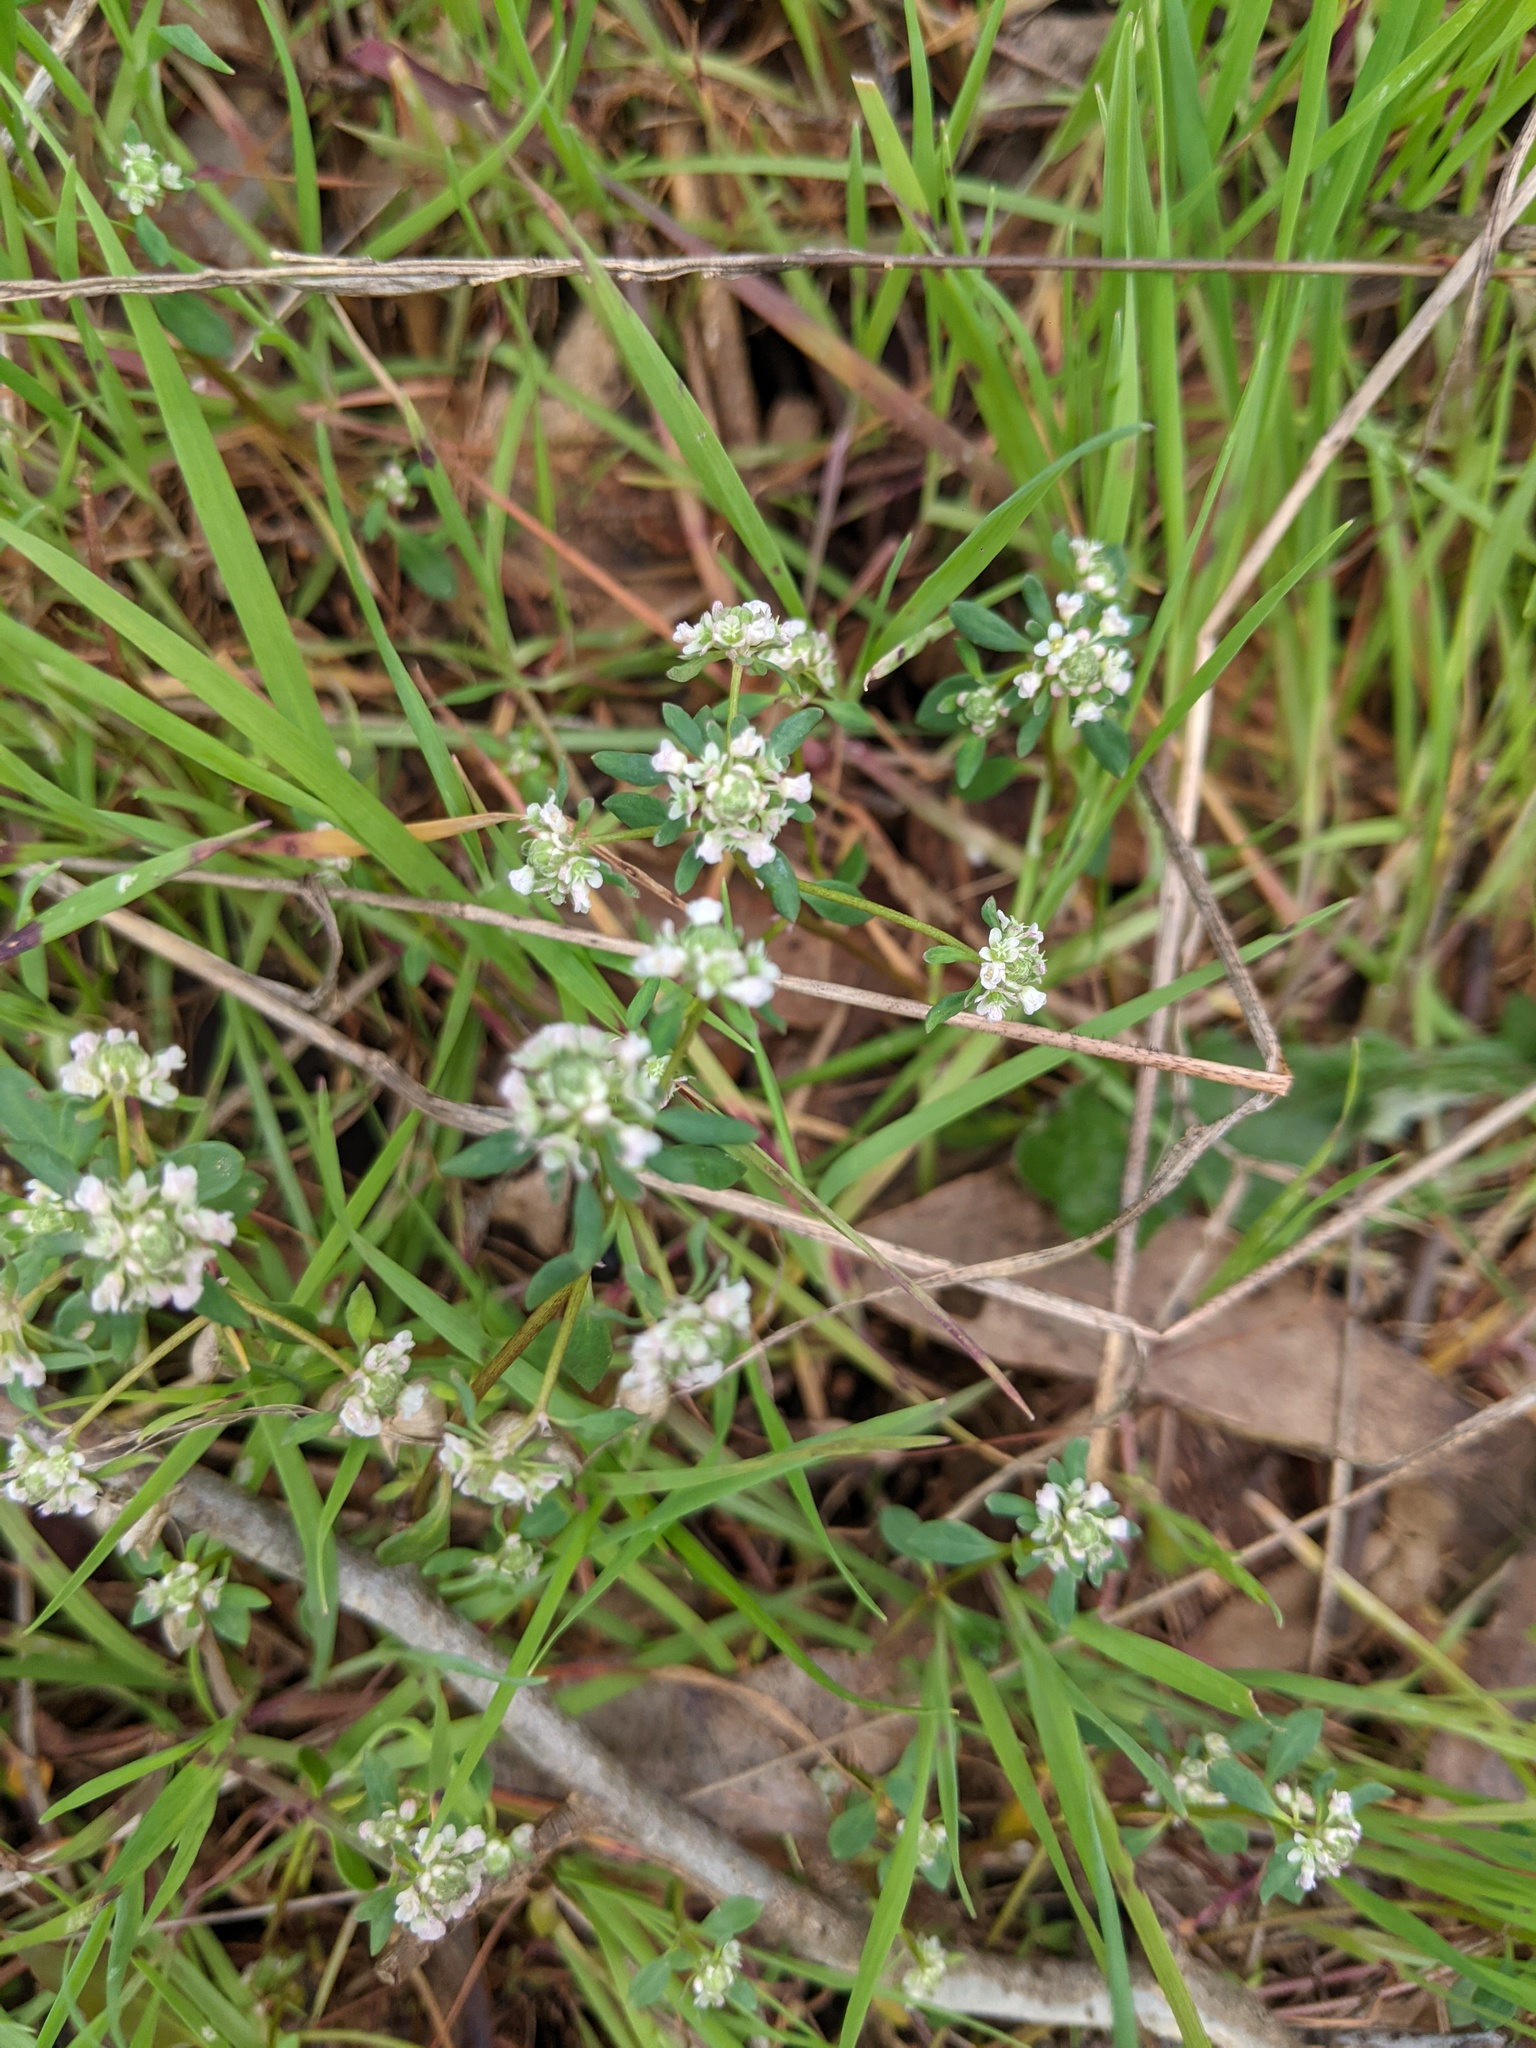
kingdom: Plantae
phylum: Tracheophyta
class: Magnoliopsida
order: Malpighiales
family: Phyllanthaceae
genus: Poranthera
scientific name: Poranthera microphylla
